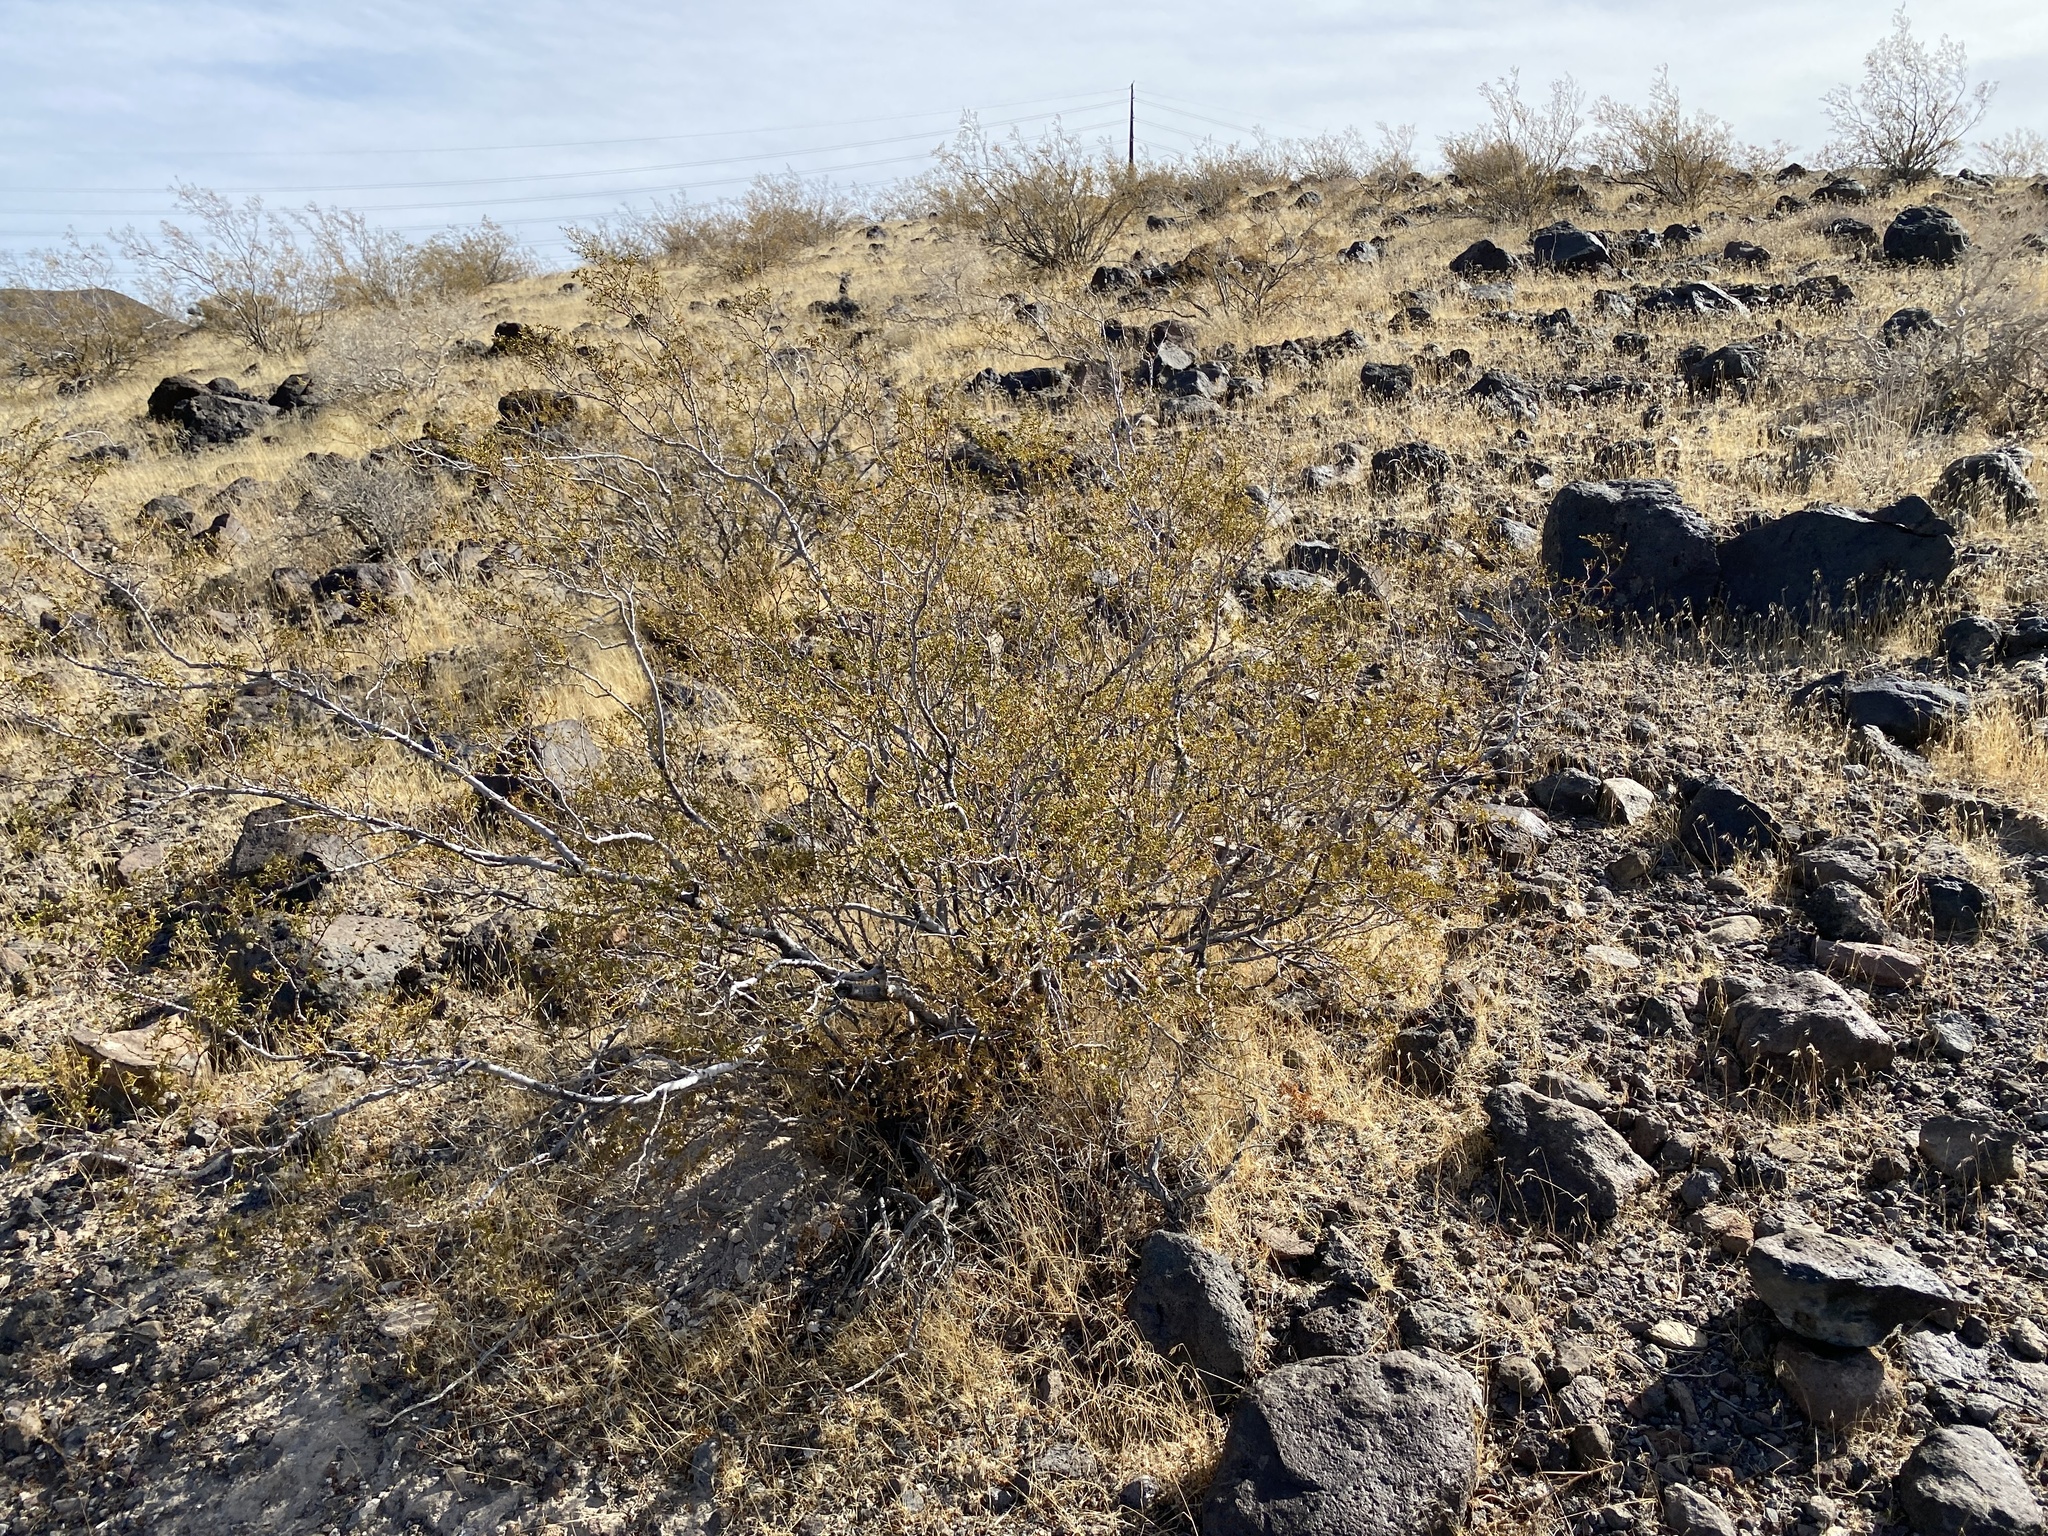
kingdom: Plantae
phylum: Tracheophyta
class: Magnoliopsida
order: Zygophyllales
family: Zygophyllaceae
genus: Larrea
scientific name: Larrea tridentata
